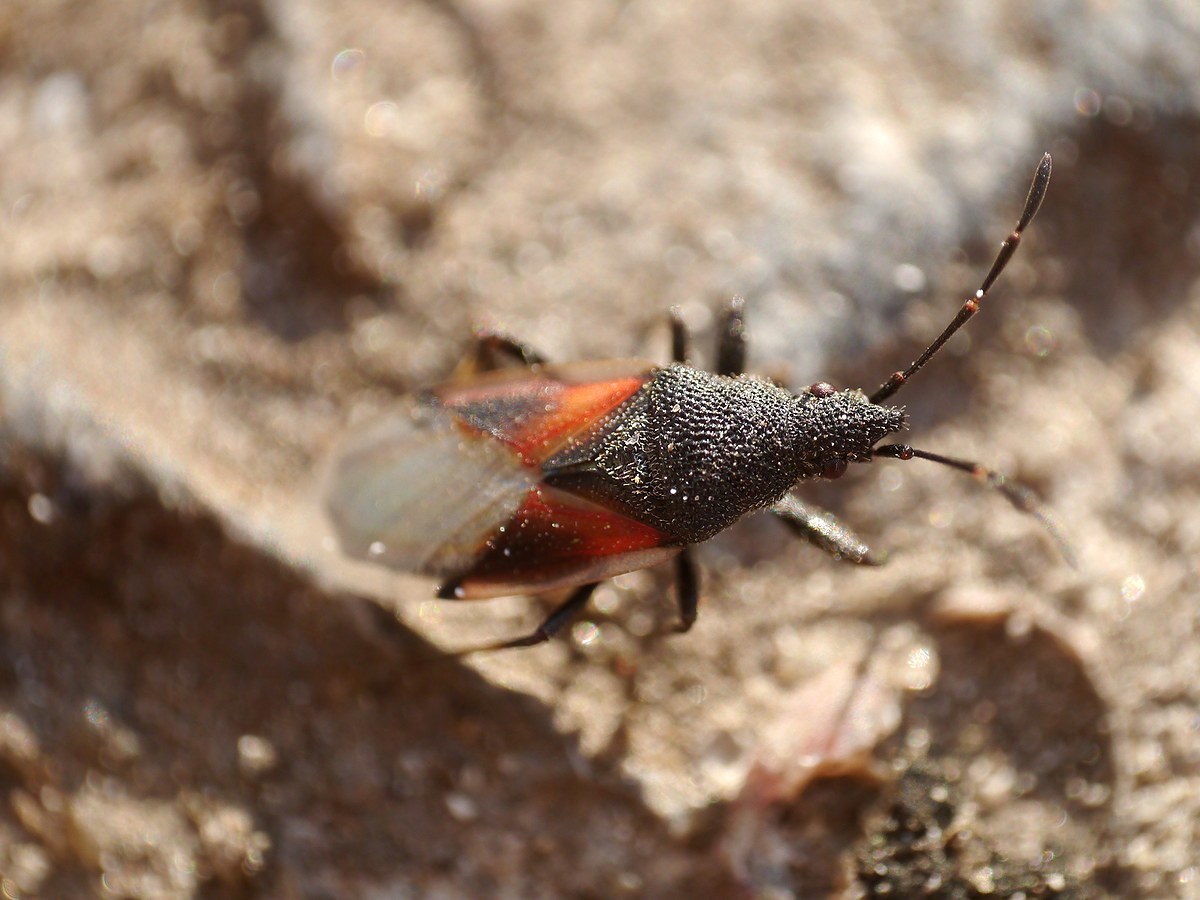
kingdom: Animalia
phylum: Arthropoda
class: Insecta
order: Hemiptera
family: Oxycarenidae
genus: Oxycarenus
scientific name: Oxycarenus lavaterae
